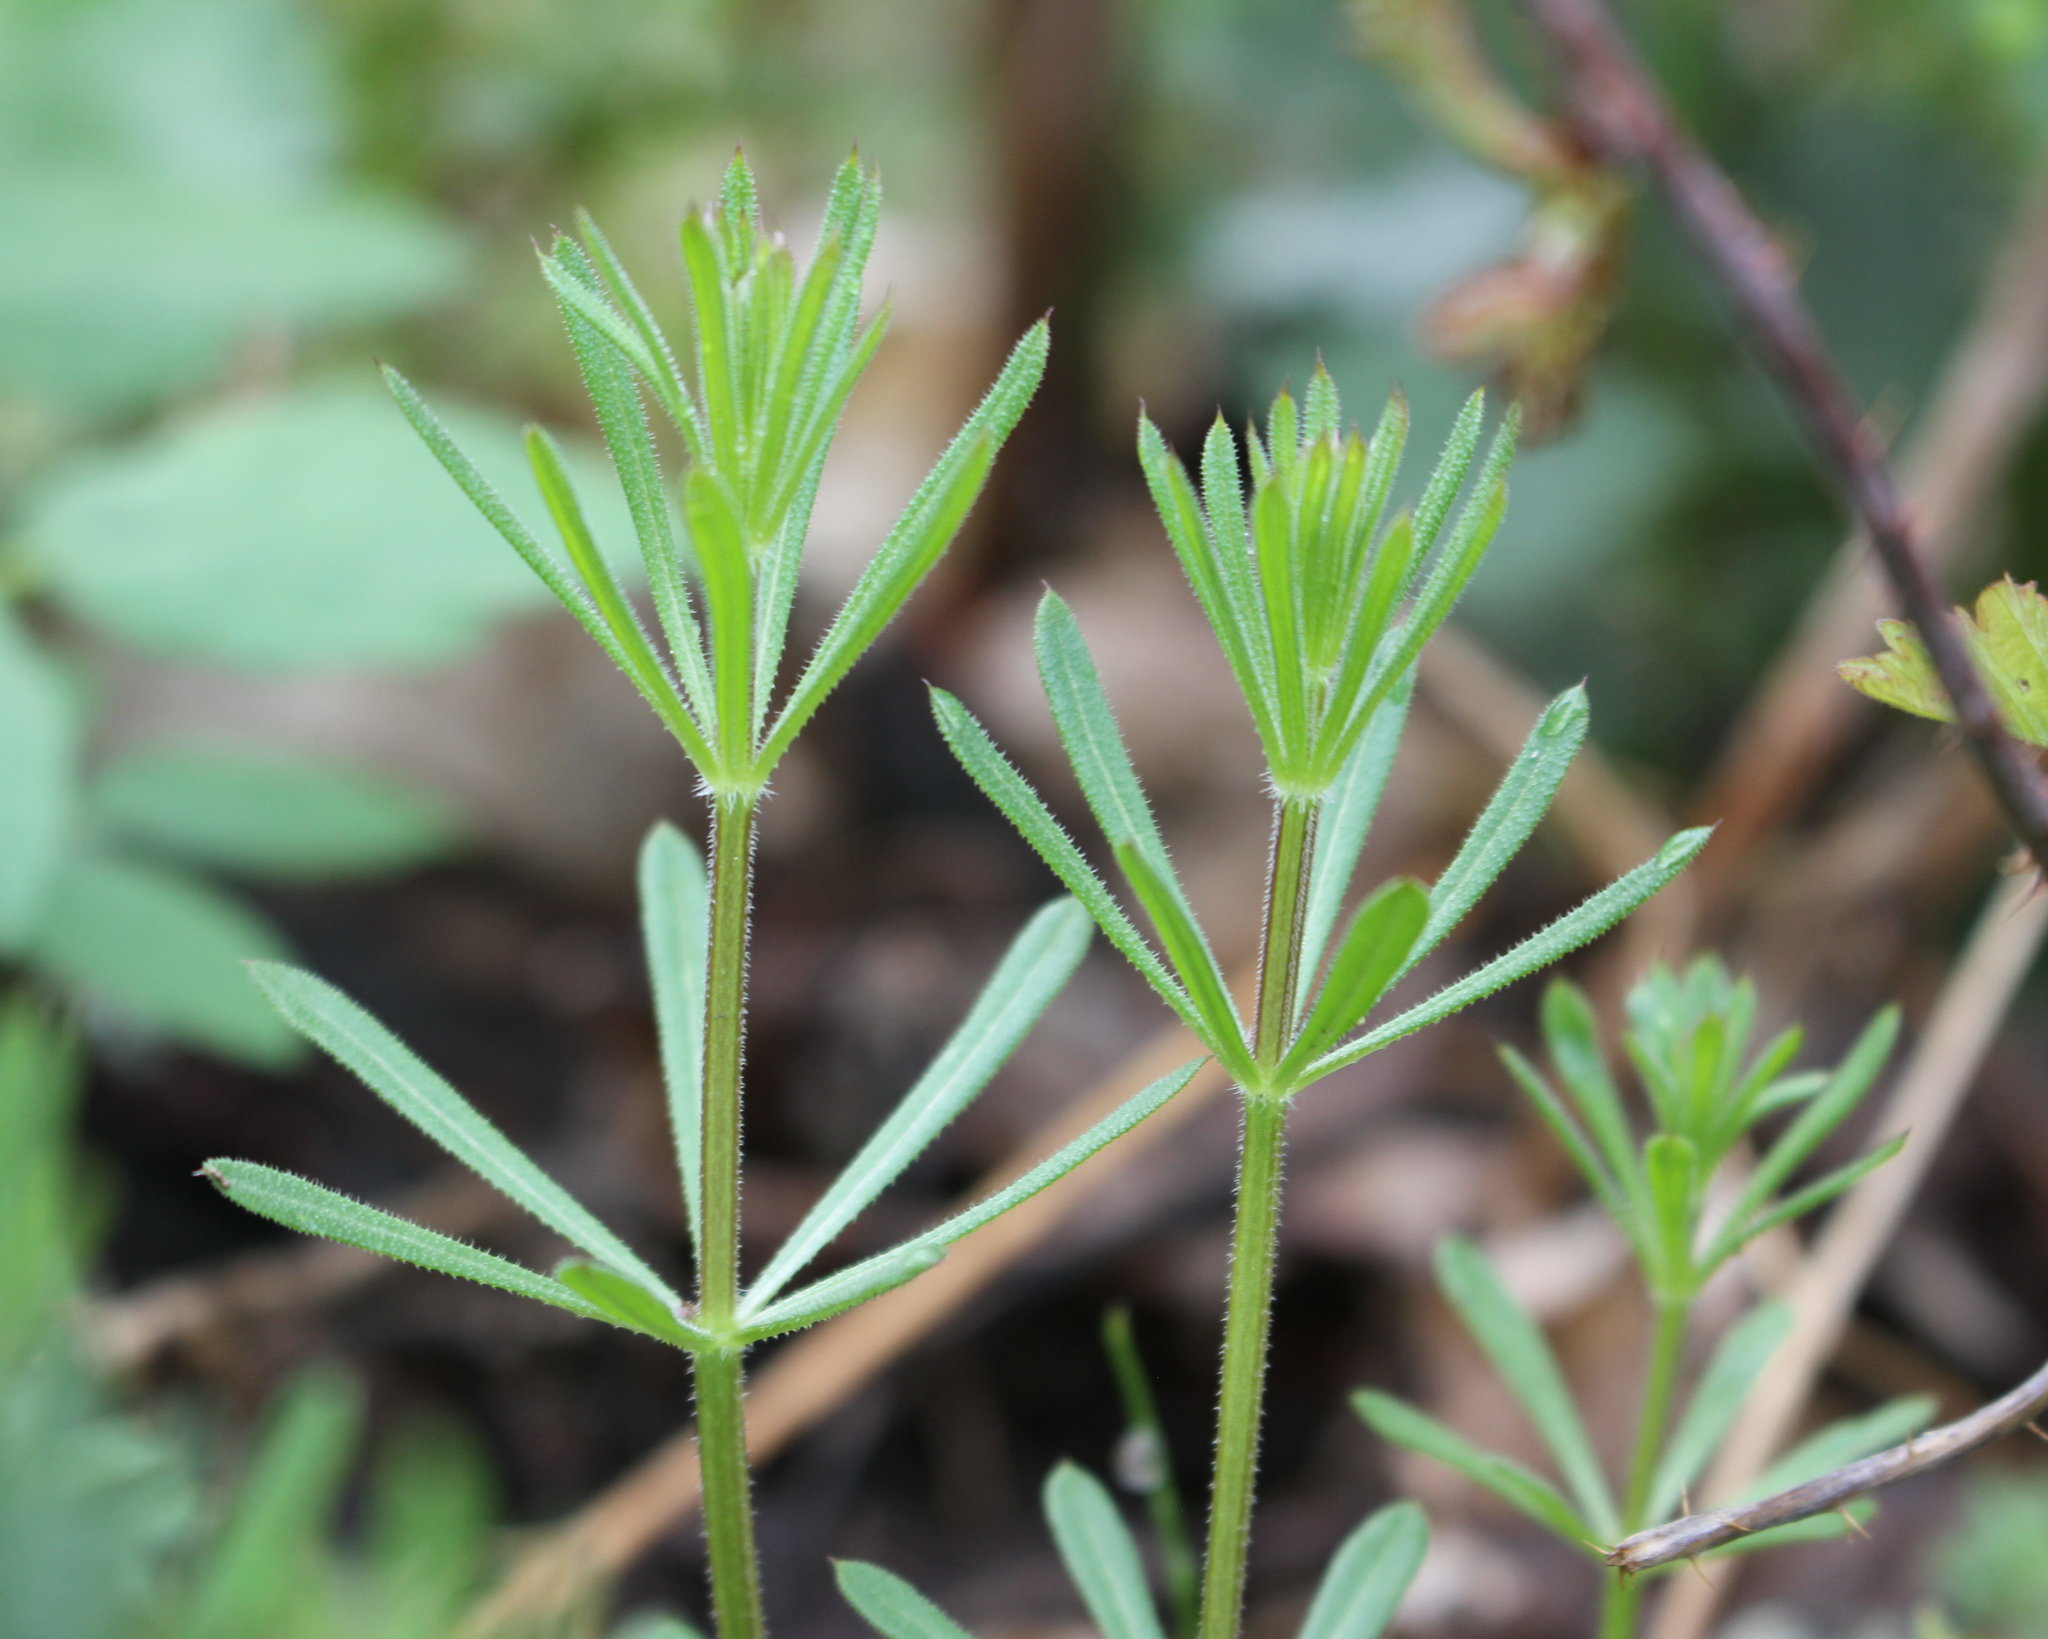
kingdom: Plantae
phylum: Tracheophyta
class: Magnoliopsida
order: Gentianales
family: Rubiaceae
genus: Galium
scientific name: Galium aparine
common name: Cleavers
